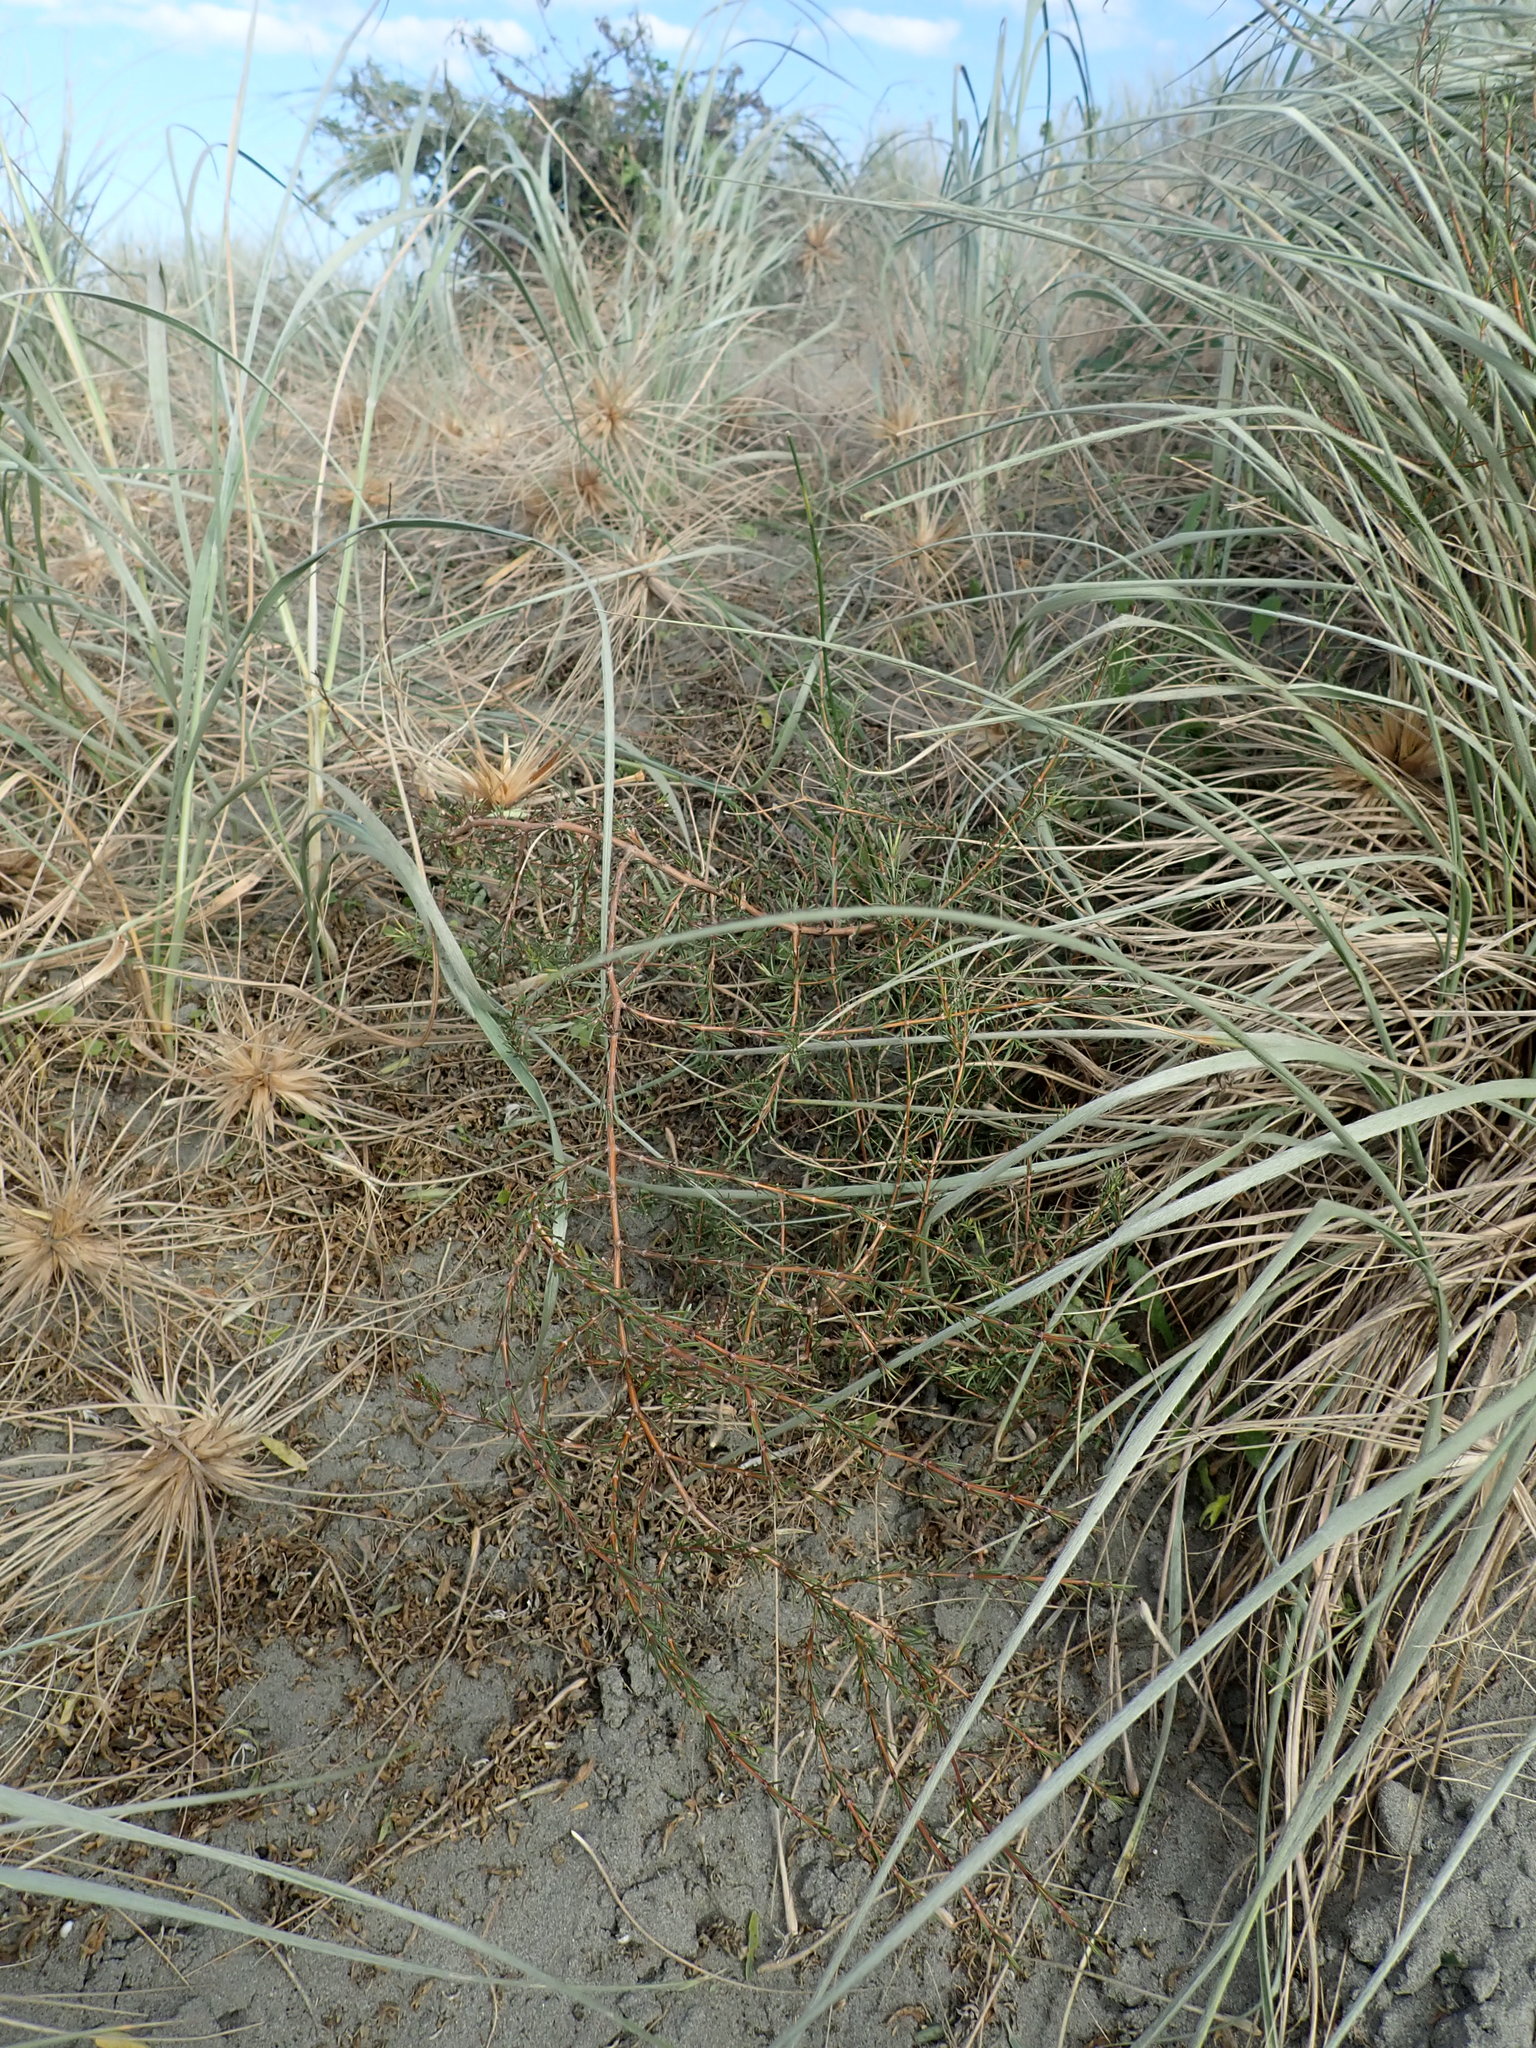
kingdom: Plantae
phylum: Tracheophyta
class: Magnoliopsida
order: Gentianales
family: Rubiaceae
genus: Coprosma
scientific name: Coprosma acerosa
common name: Sand coprosma
